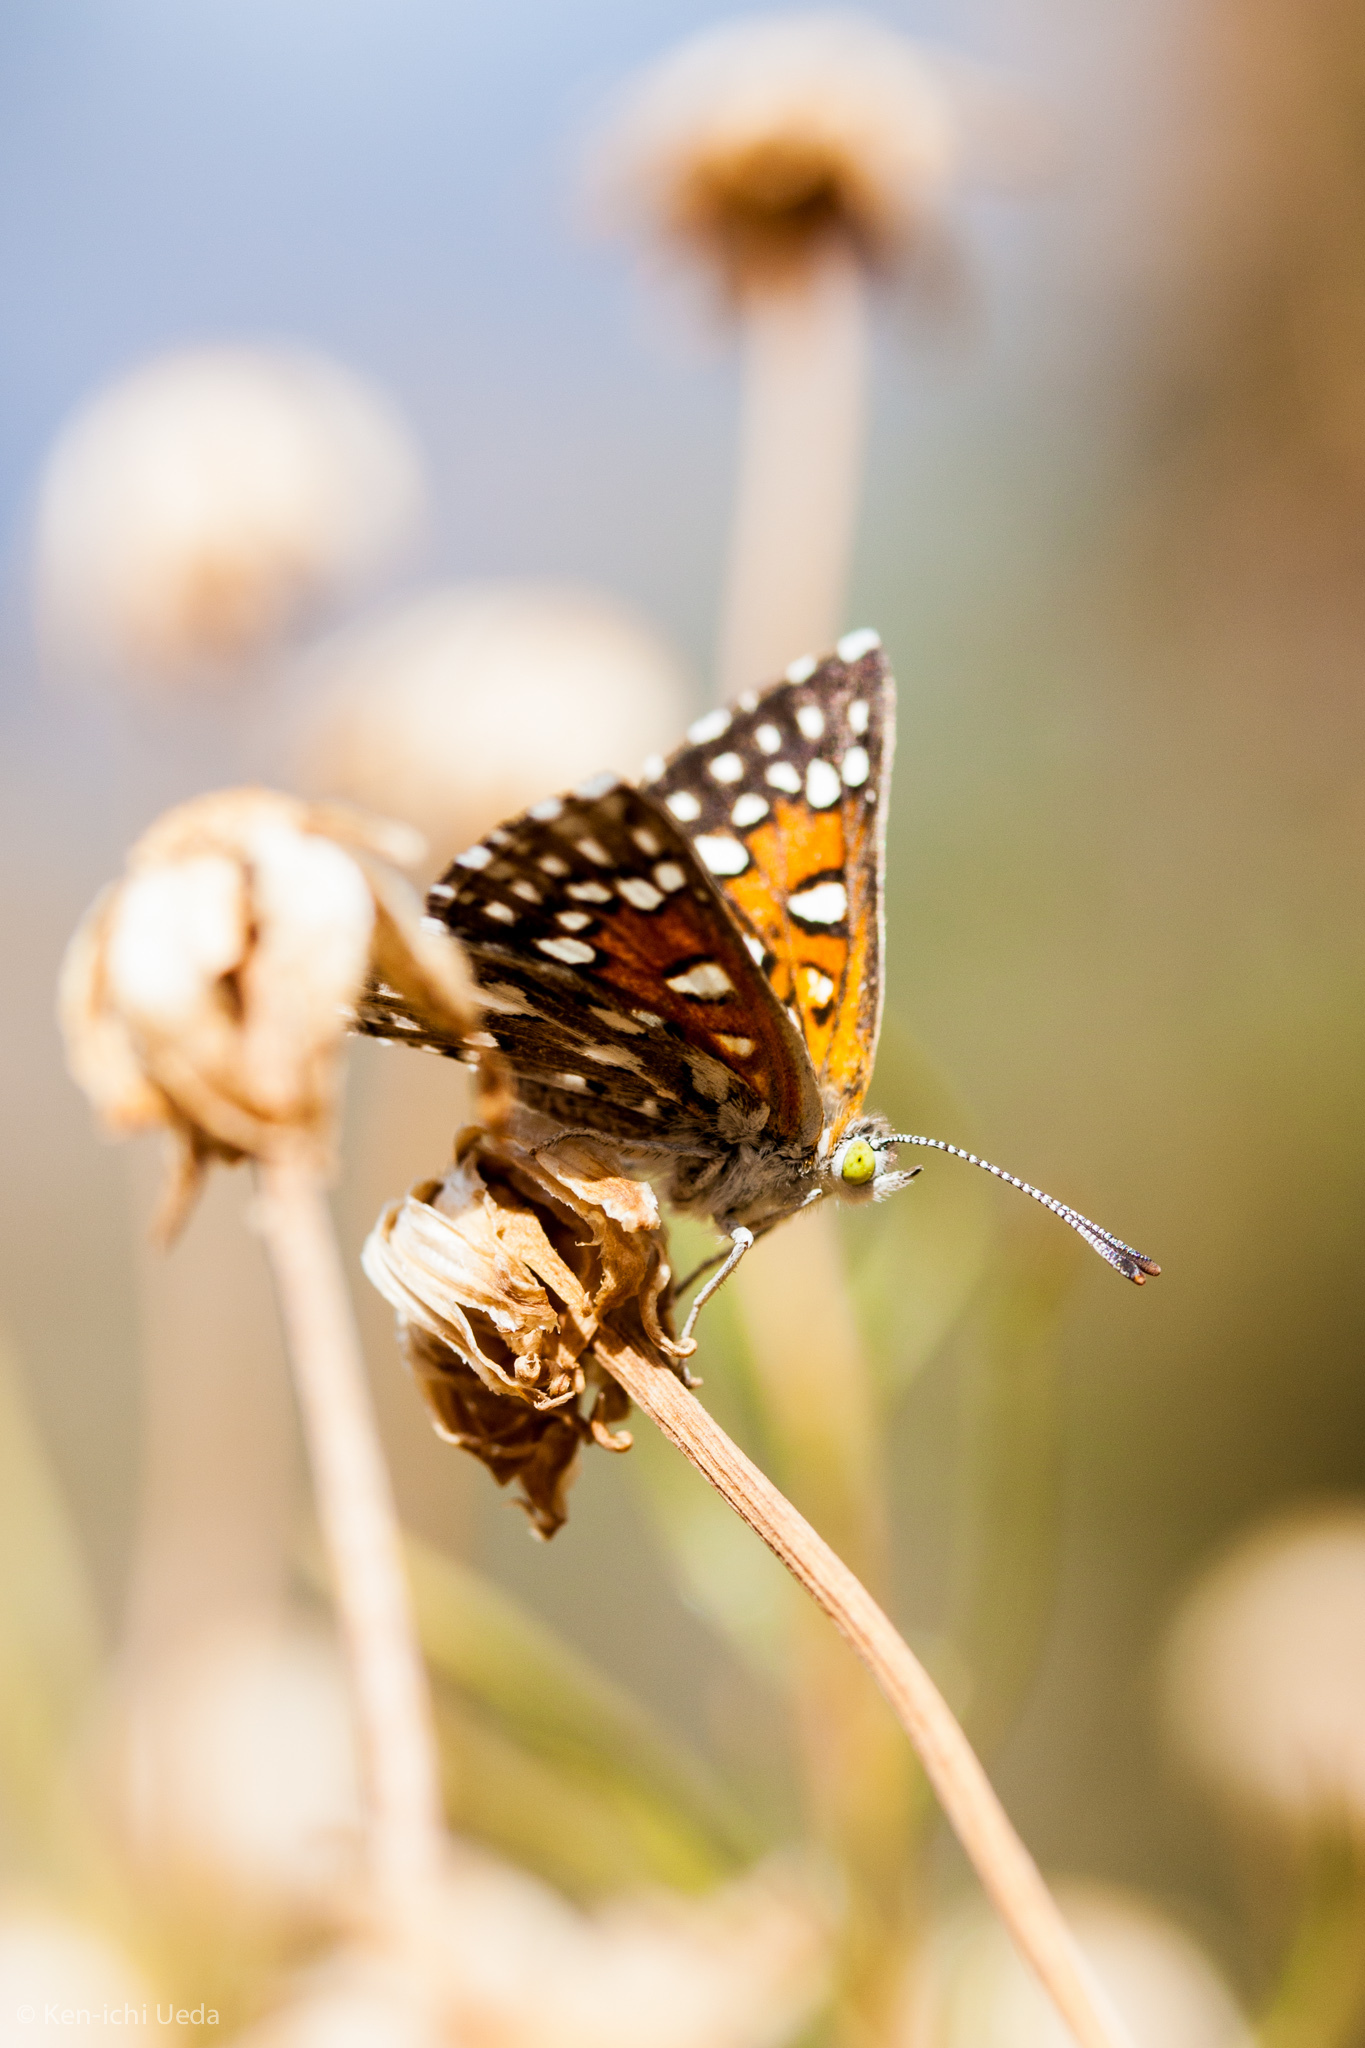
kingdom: Animalia
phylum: Arthropoda
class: Insecta
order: Lepidoptera
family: Riodinidae
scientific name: Riodinidae
